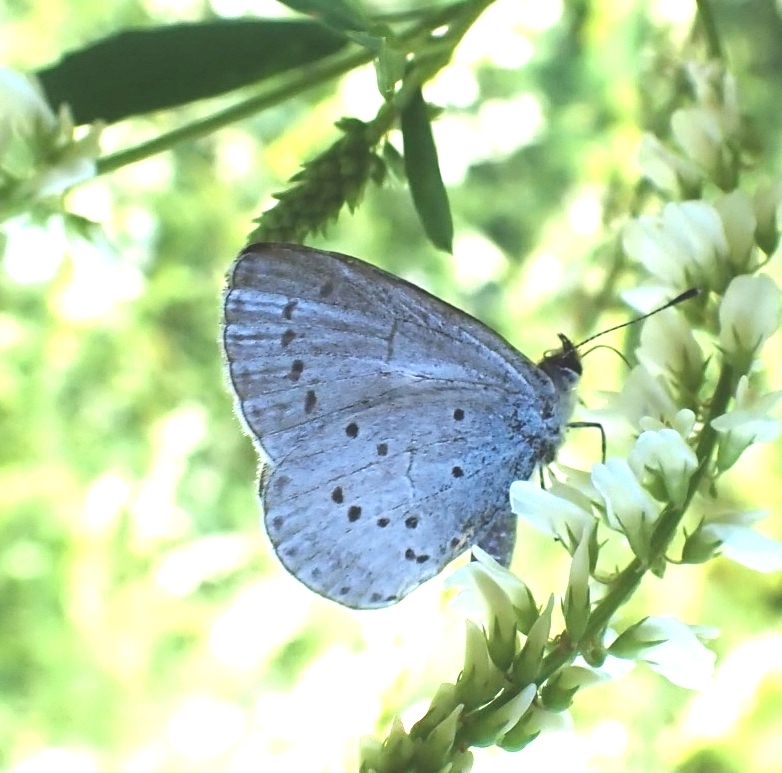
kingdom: Animalia
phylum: Arthropoda
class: Insecta
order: Lepidoptera
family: Lycaenidae
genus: Celastrina
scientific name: Celastrina argiolus
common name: Holly blue
